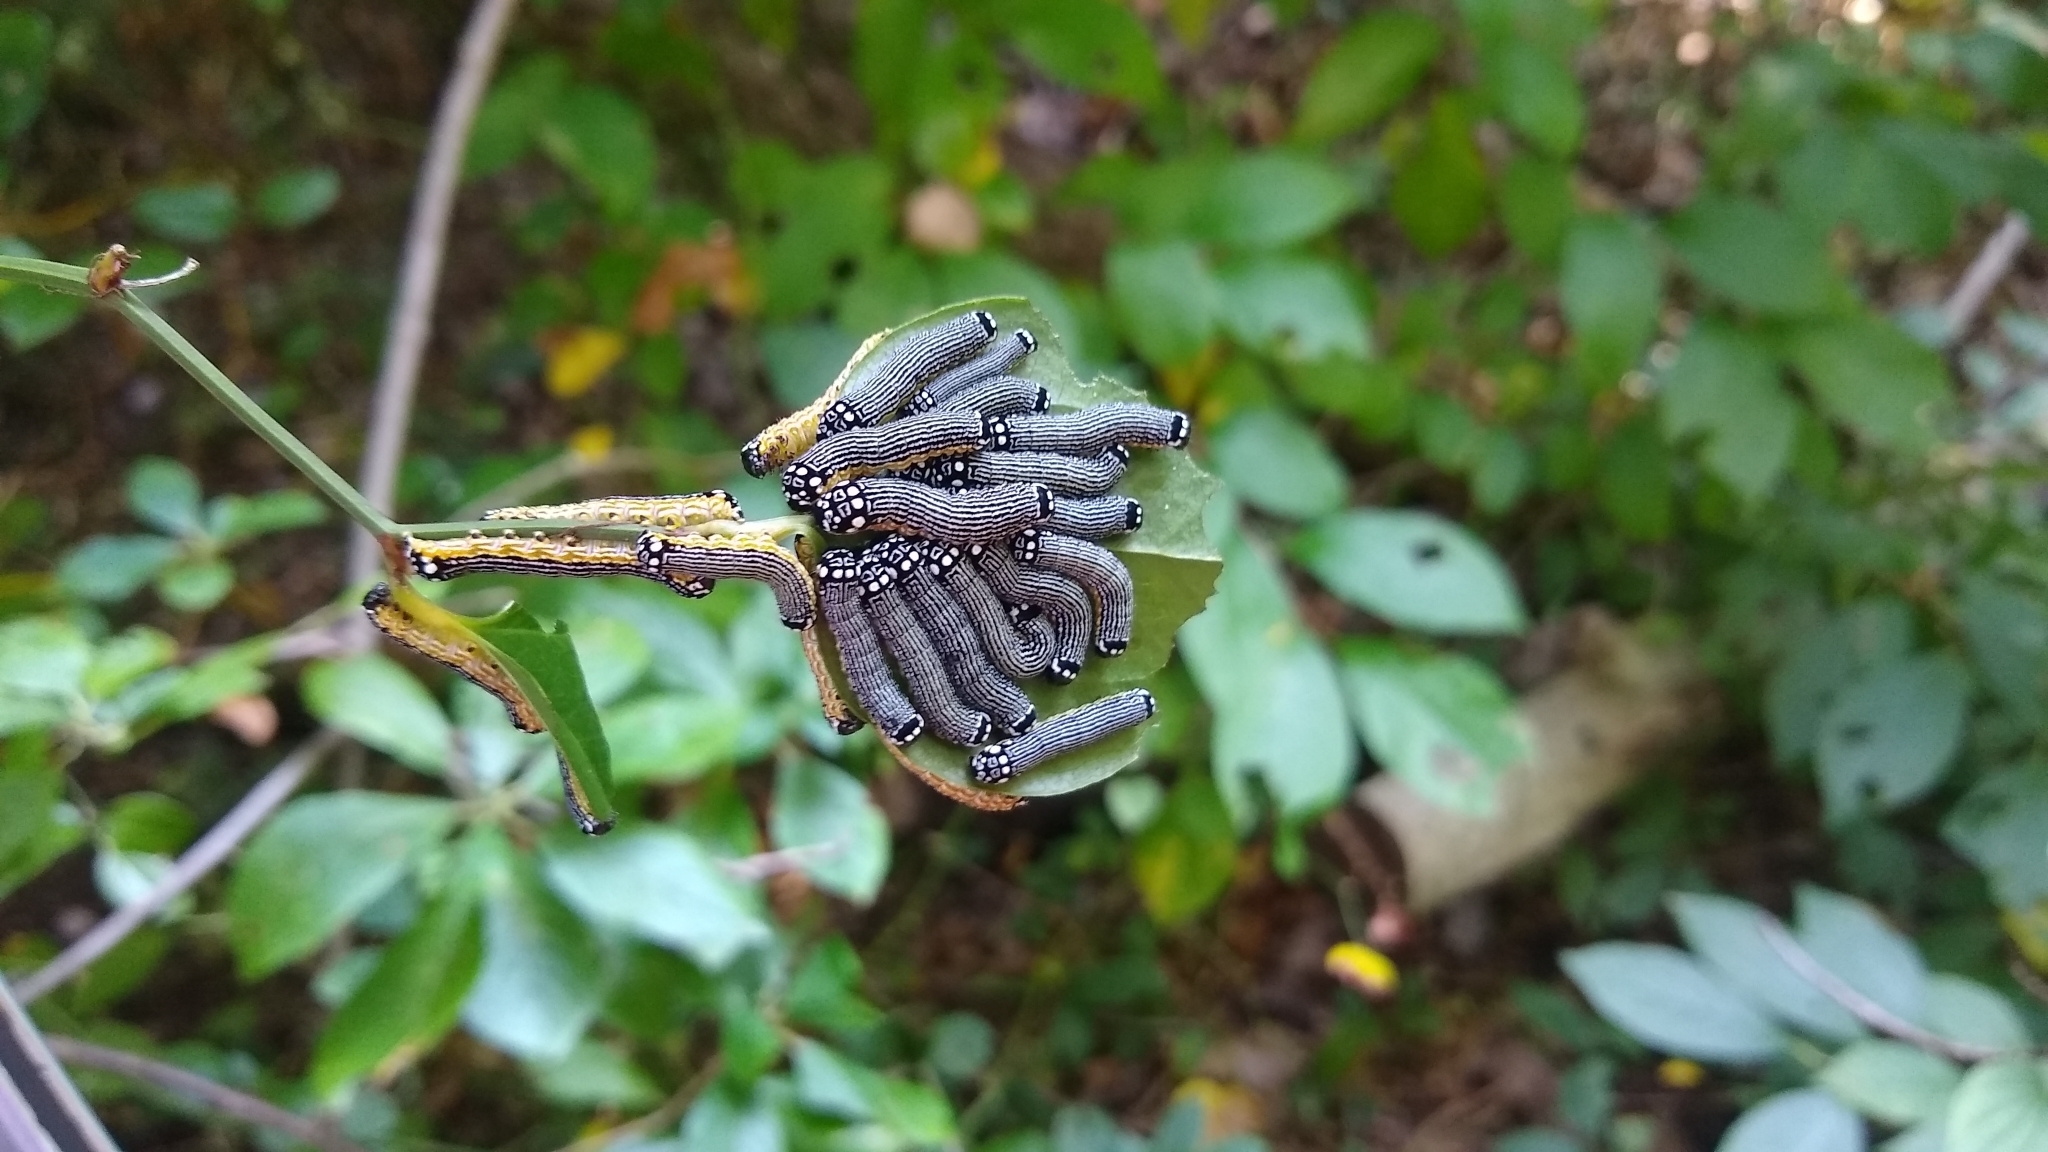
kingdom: Animalia
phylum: Arthropoda
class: Insecta
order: Lepidoptera
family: Noctuidae
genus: Phosphila
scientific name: Phosphila turbulenta
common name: Turbulent phosphila moth
